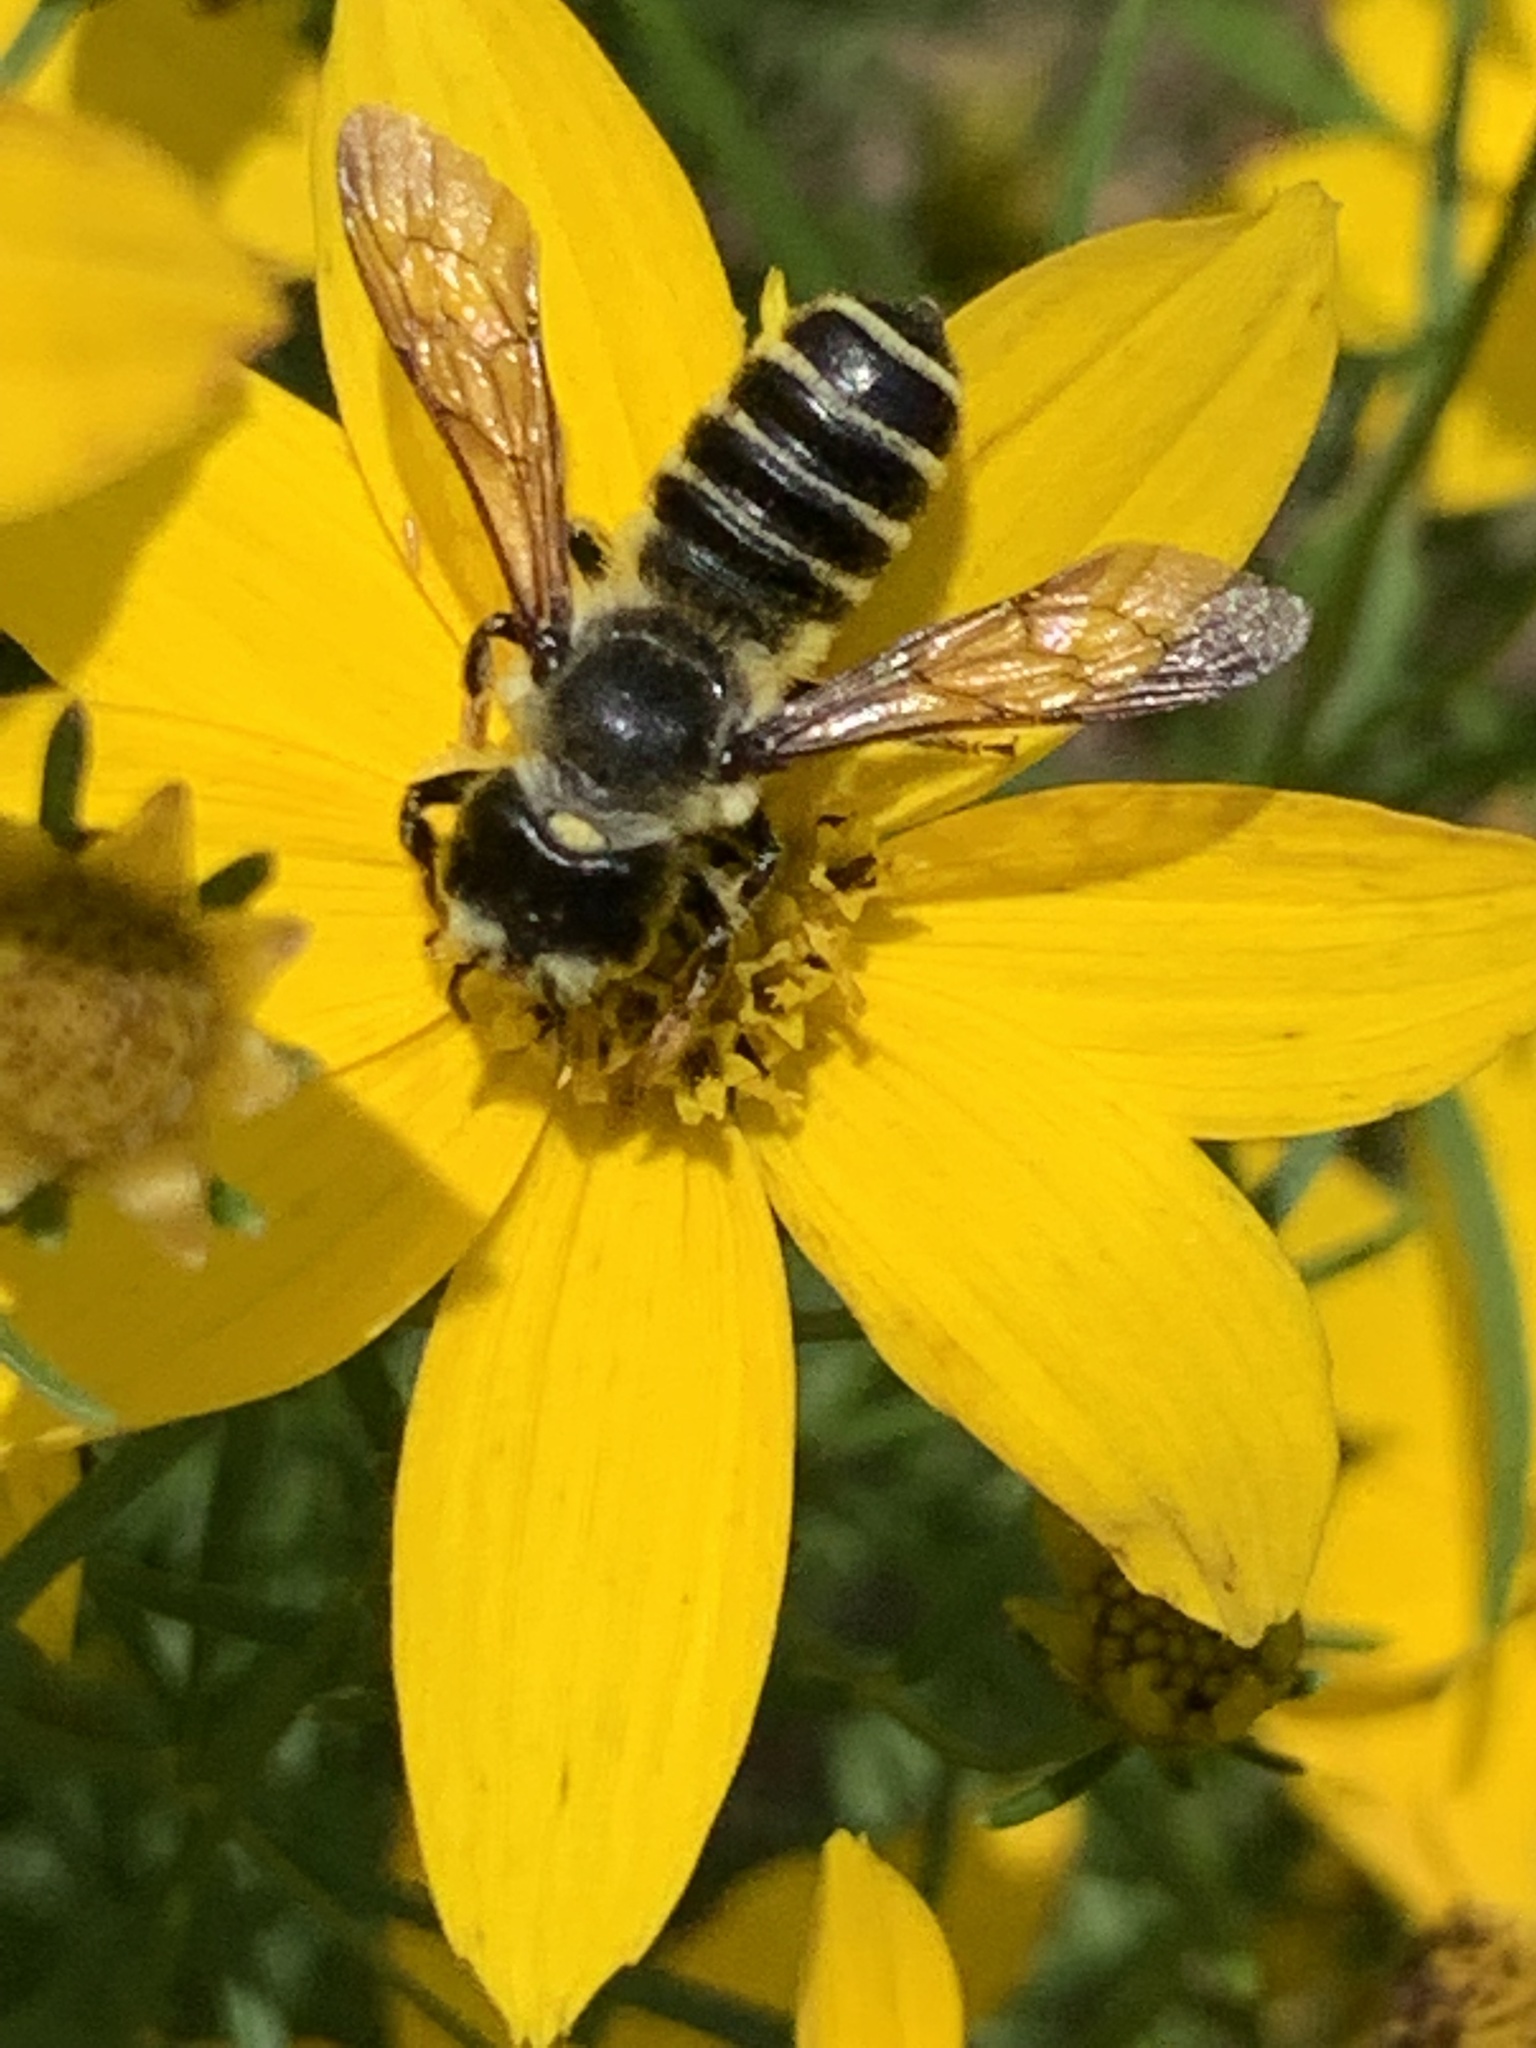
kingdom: Animalia
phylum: Arthropoda
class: Insecta
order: Hymenoptera
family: Megachilidae
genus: Megachile
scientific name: Megachile pugnata
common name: Pugnacious leafcutter bee
